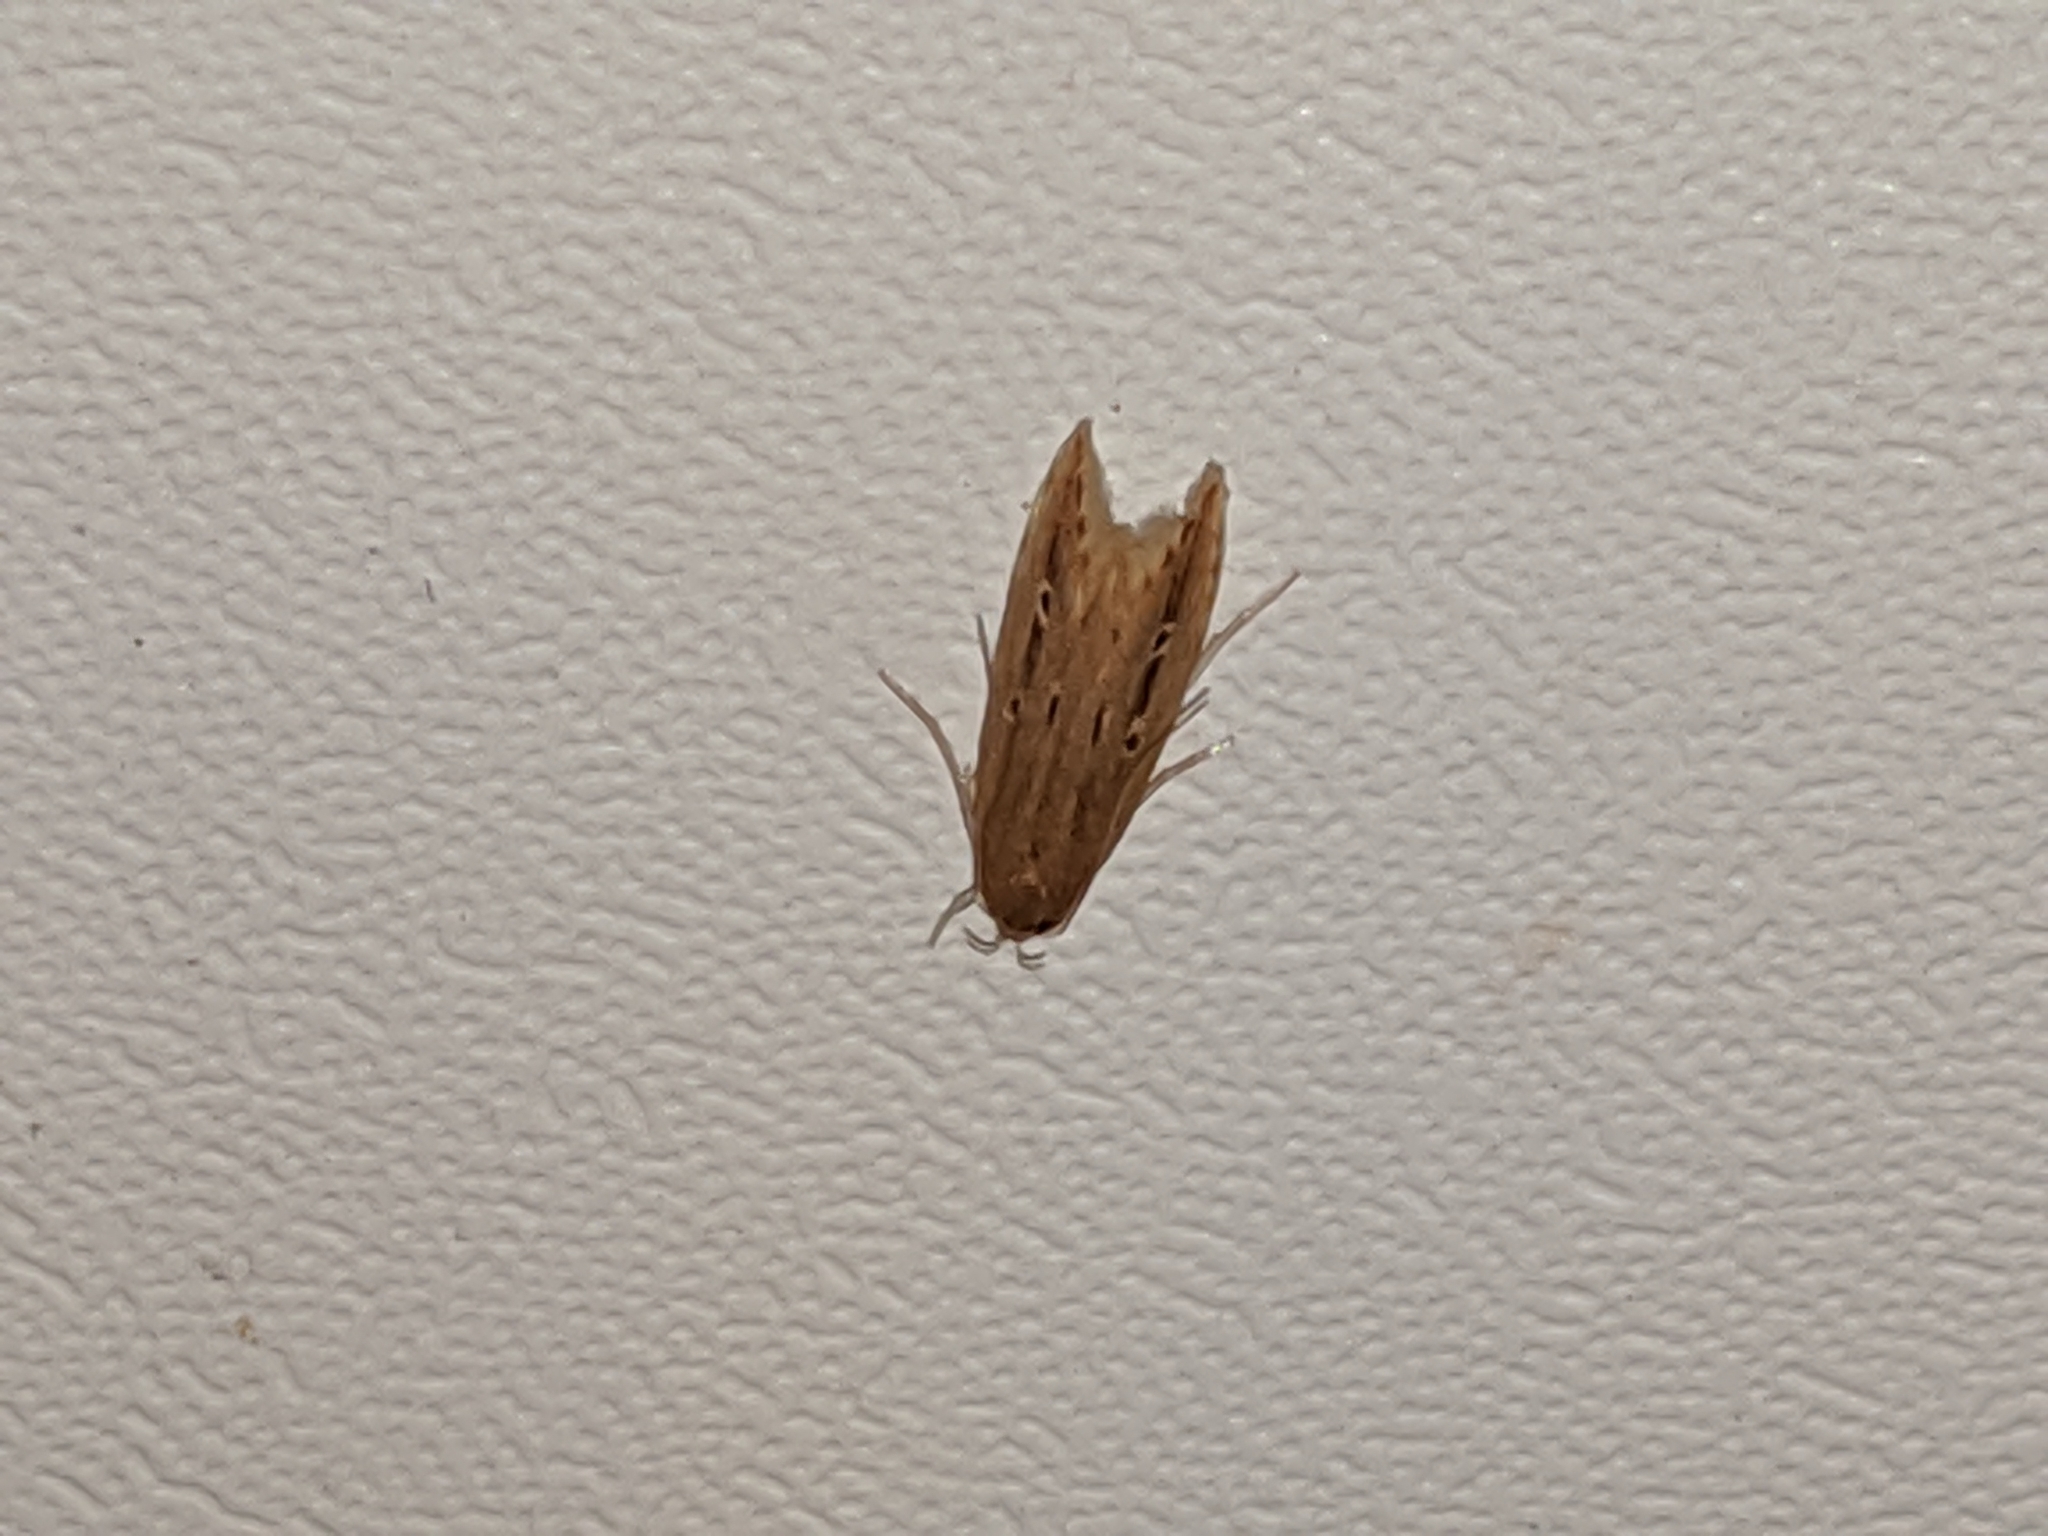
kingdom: Animalia
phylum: Arthropoda
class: Insecta
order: Lepidoptera
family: Cosmopterigidae
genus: Limnaecia
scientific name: Limnaecia phragmitella
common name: Bulrush cosmet
